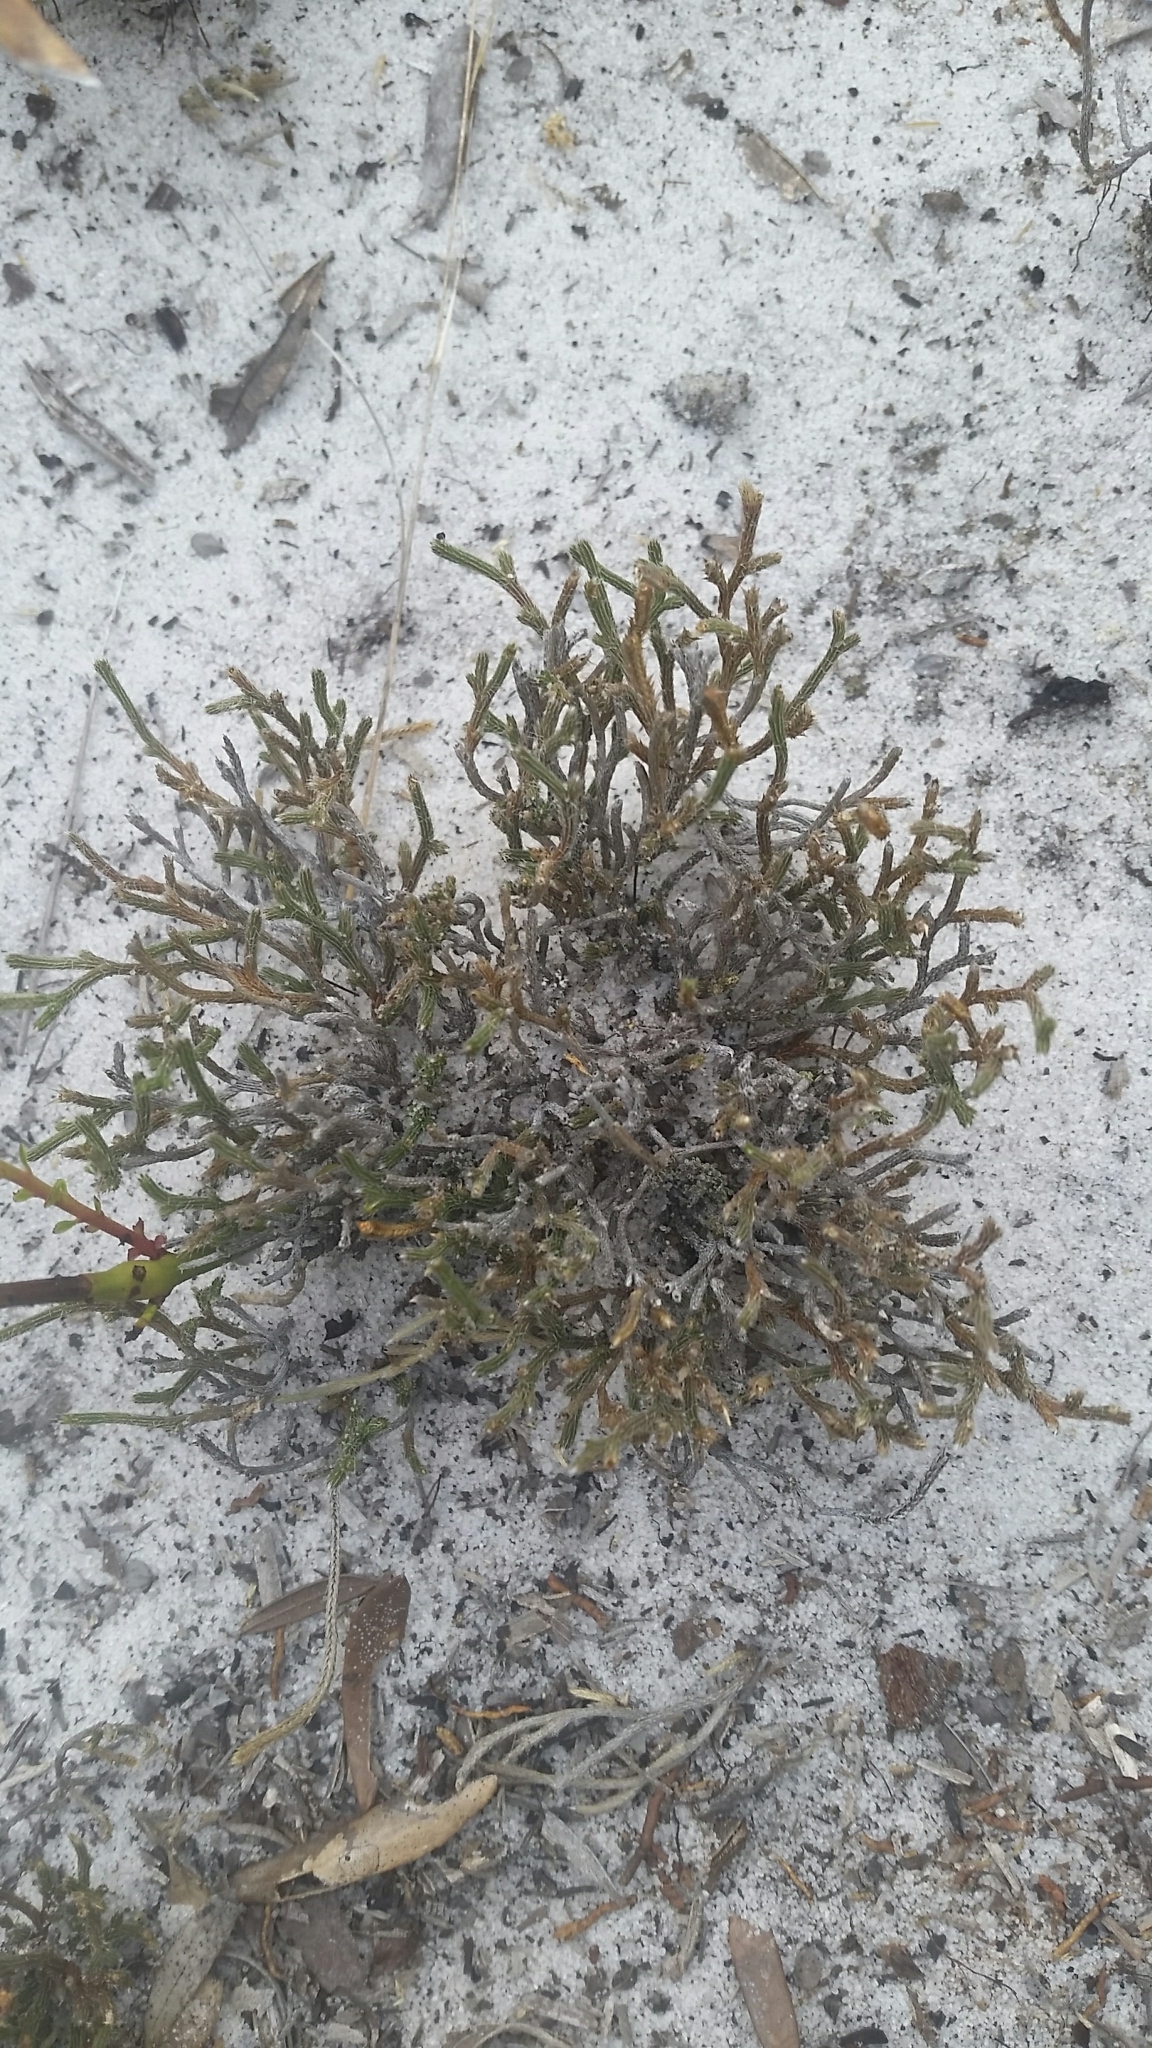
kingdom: Plantae
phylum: Tracheophyta
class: Lycopodiopsida
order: Selaginellales
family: Selaginellaceae
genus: Selaginella
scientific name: Selaginella arenicola
